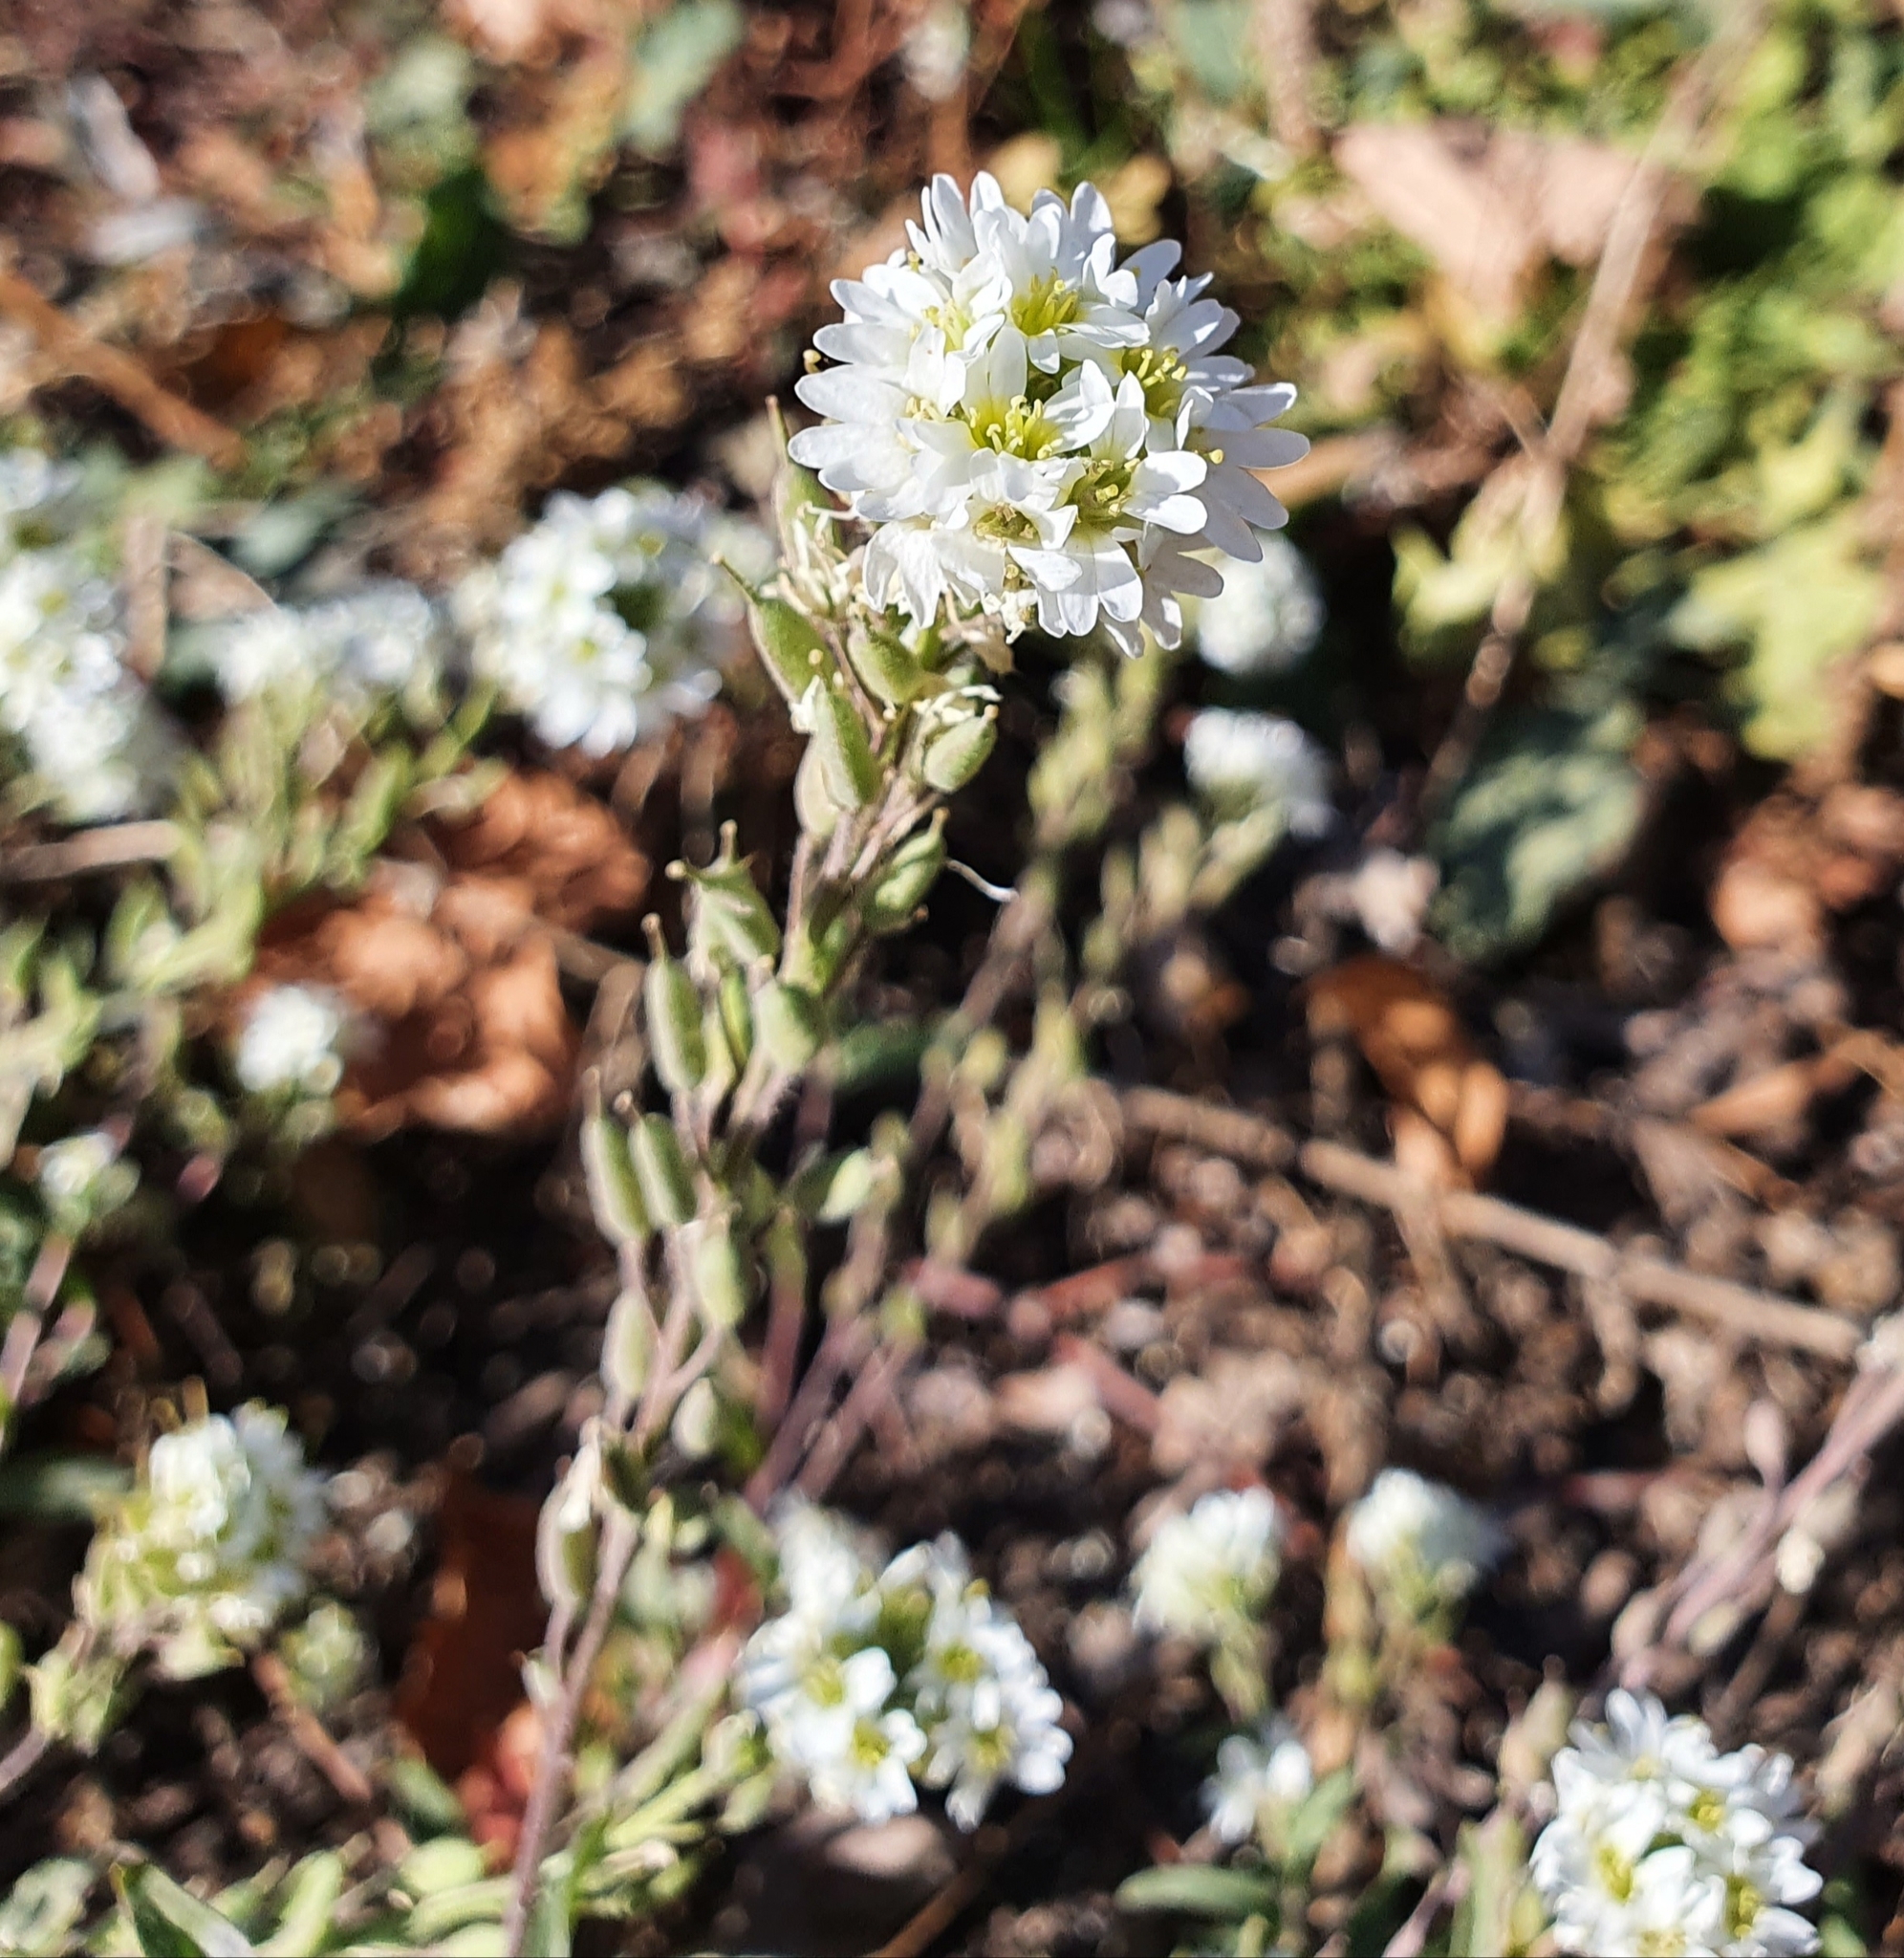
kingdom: Plantae
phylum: Tracheophyta
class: Magnoliopsida
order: Brassicales
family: Brassicaceae
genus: Berteroa
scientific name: Berteroa incana
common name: Hoary alison
